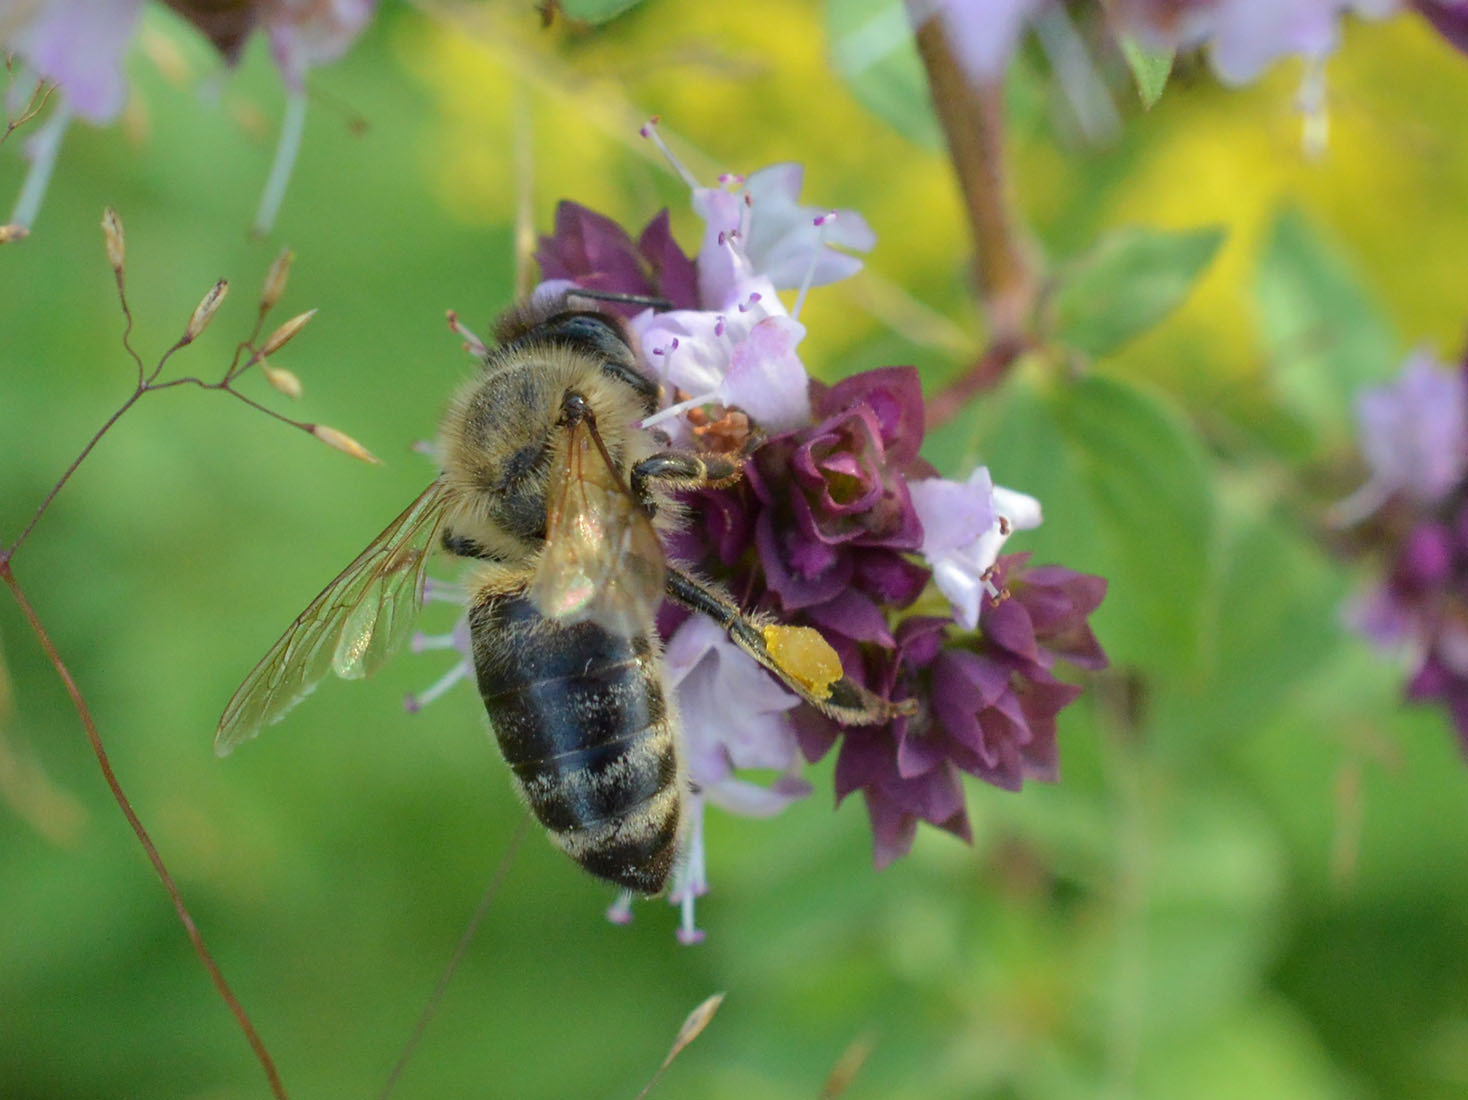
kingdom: Animalia
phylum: Arthropoda
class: Insecta
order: Hymenoptera
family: Apidae
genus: Apis
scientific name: Apis mellifera
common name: Honey bee
